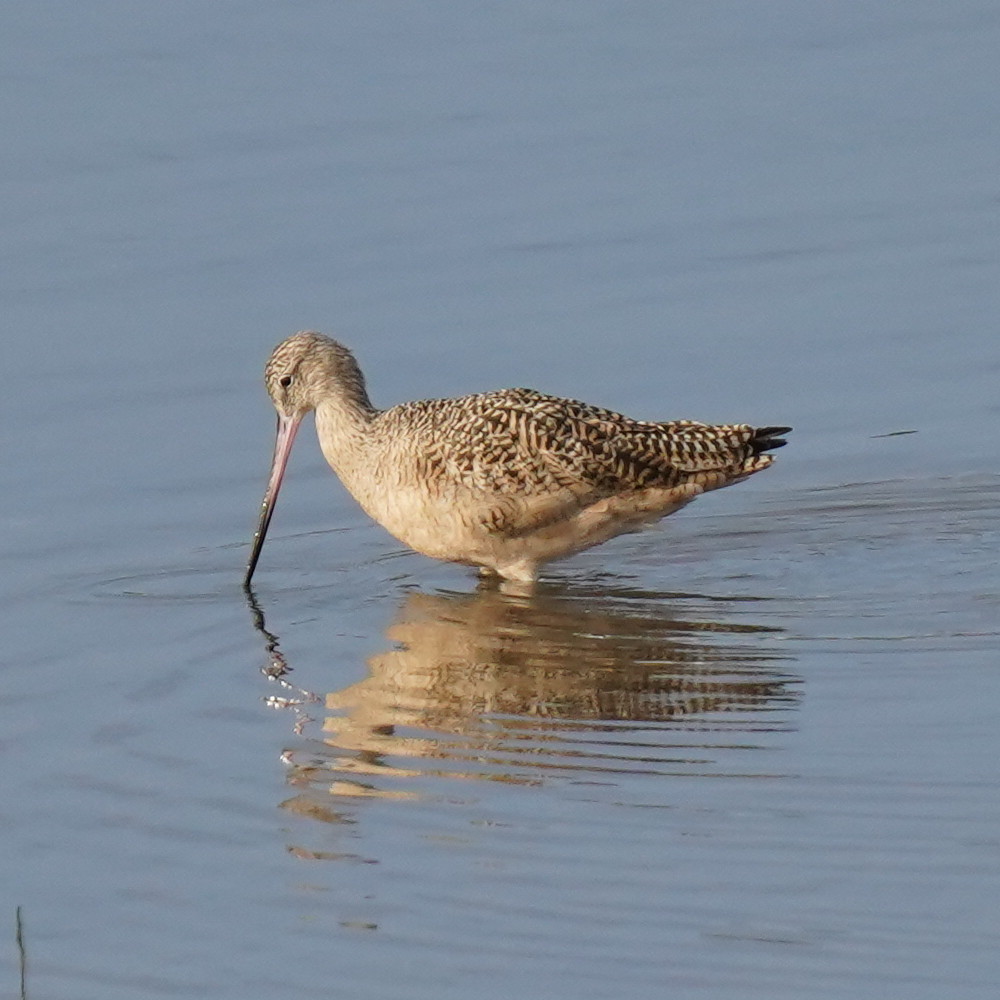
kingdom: Animalia
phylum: Chordata
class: Aves
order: Charadriiformes
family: Scolopacidae
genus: Limosa
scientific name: Limosa fedoa
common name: Marbled godwit
